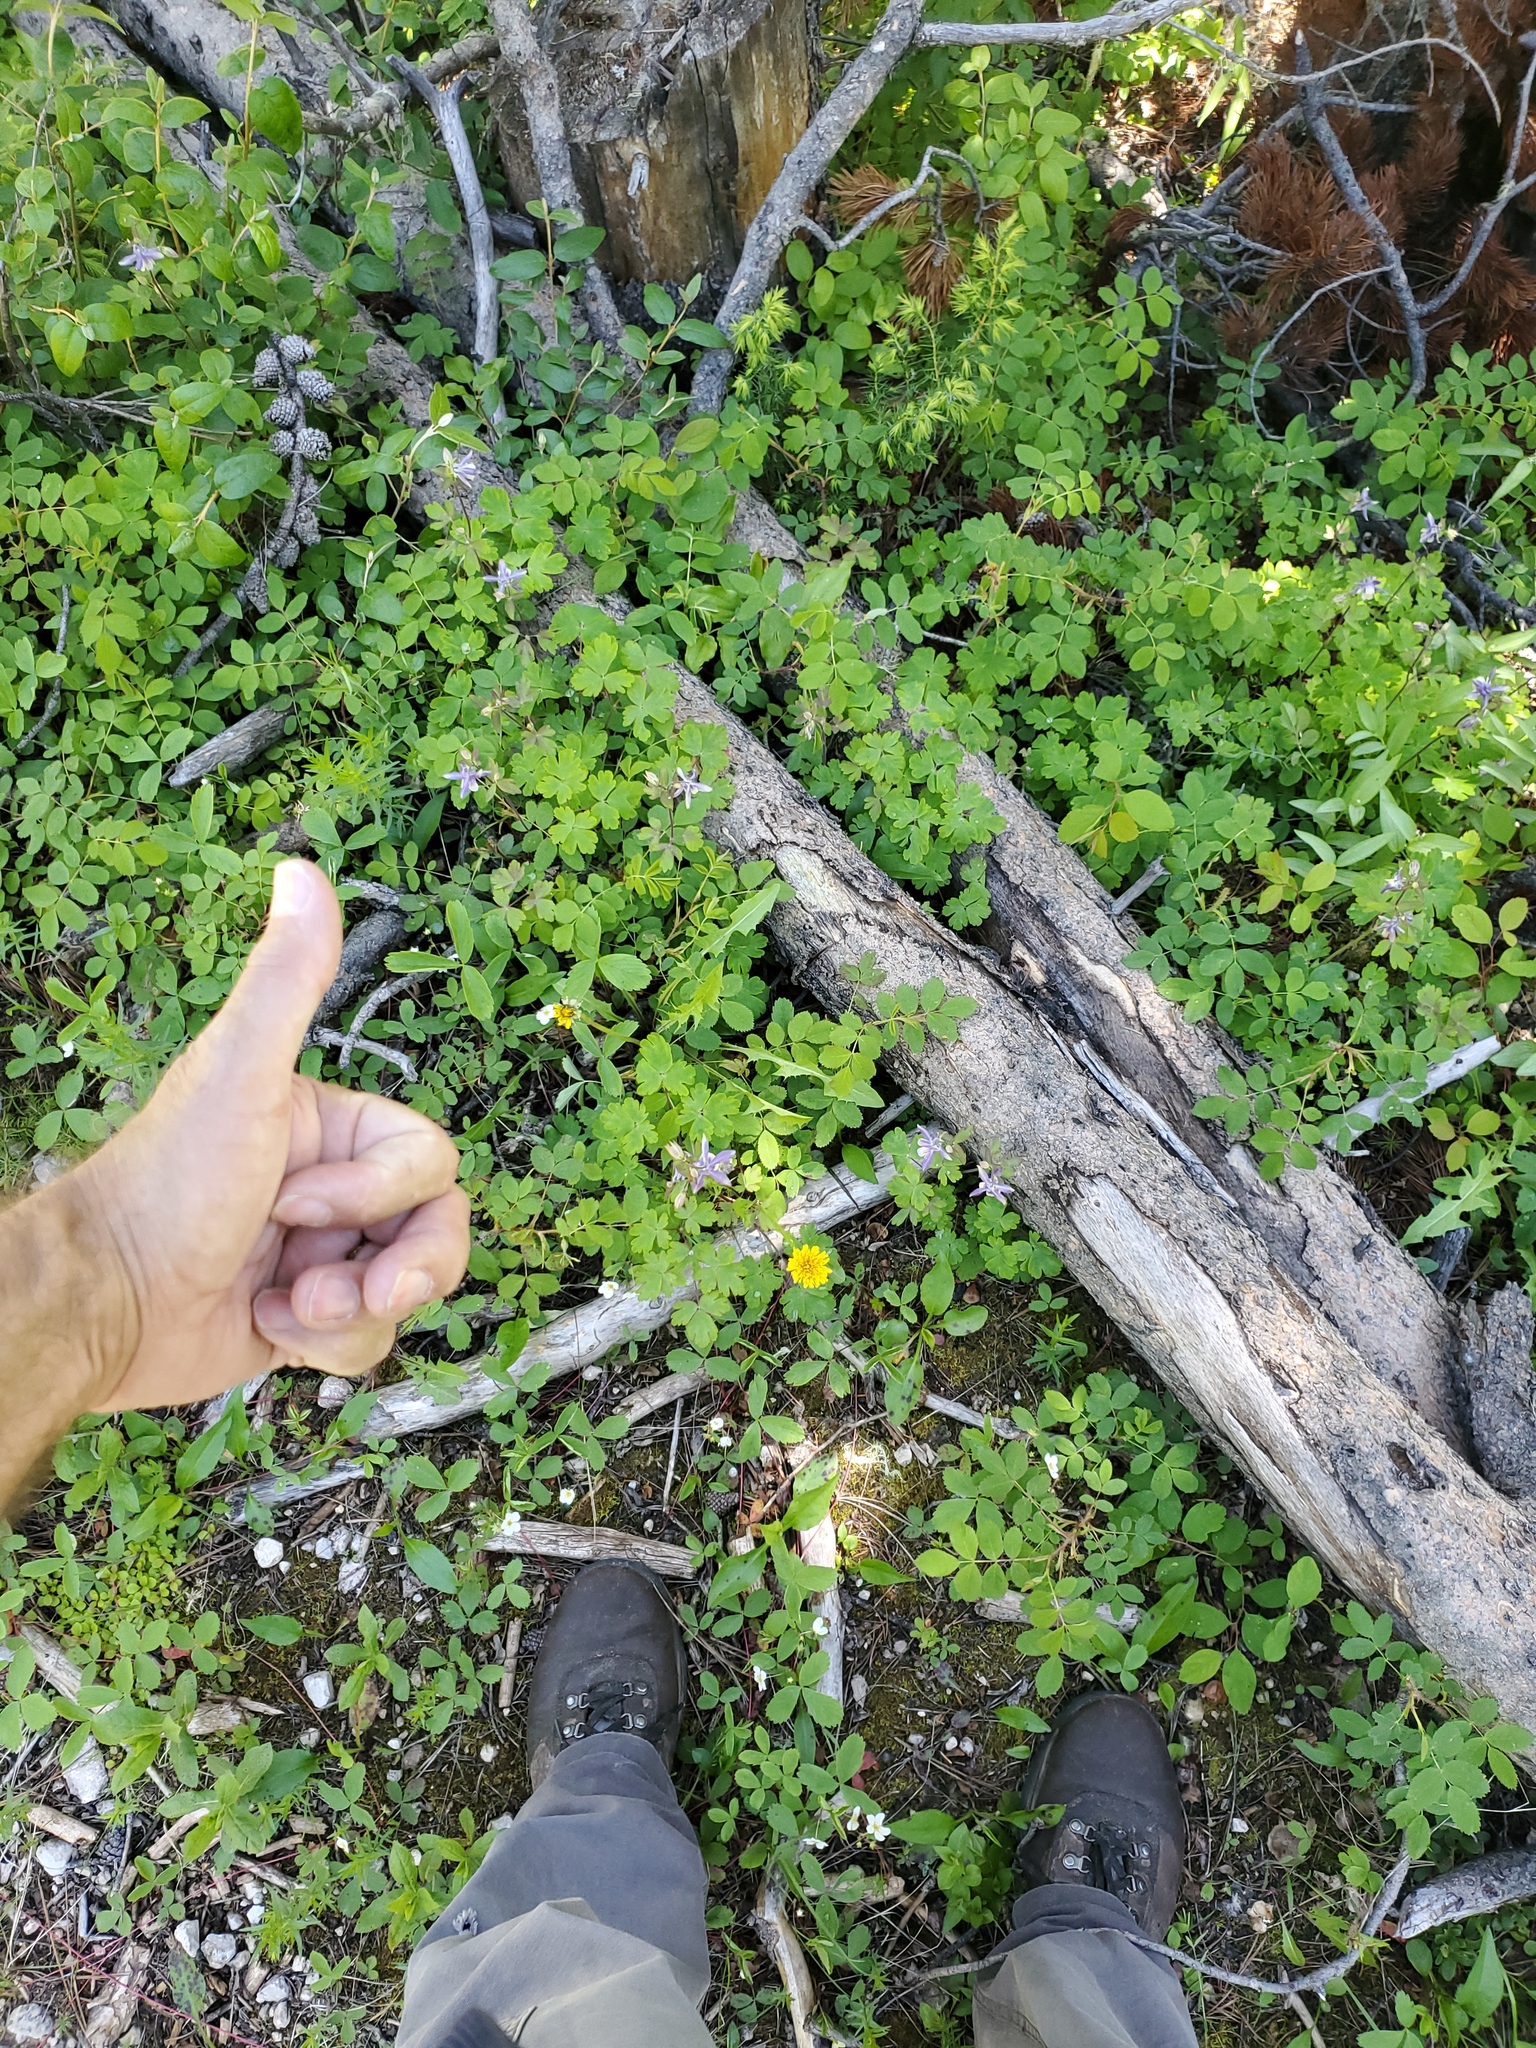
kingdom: Plantae
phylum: Tracheophyta
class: Magnoliopsida
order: Ranunculales
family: Ranunculaceae
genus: Aquilegia
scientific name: Aquilegia brevistyla
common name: Yukon columbine
